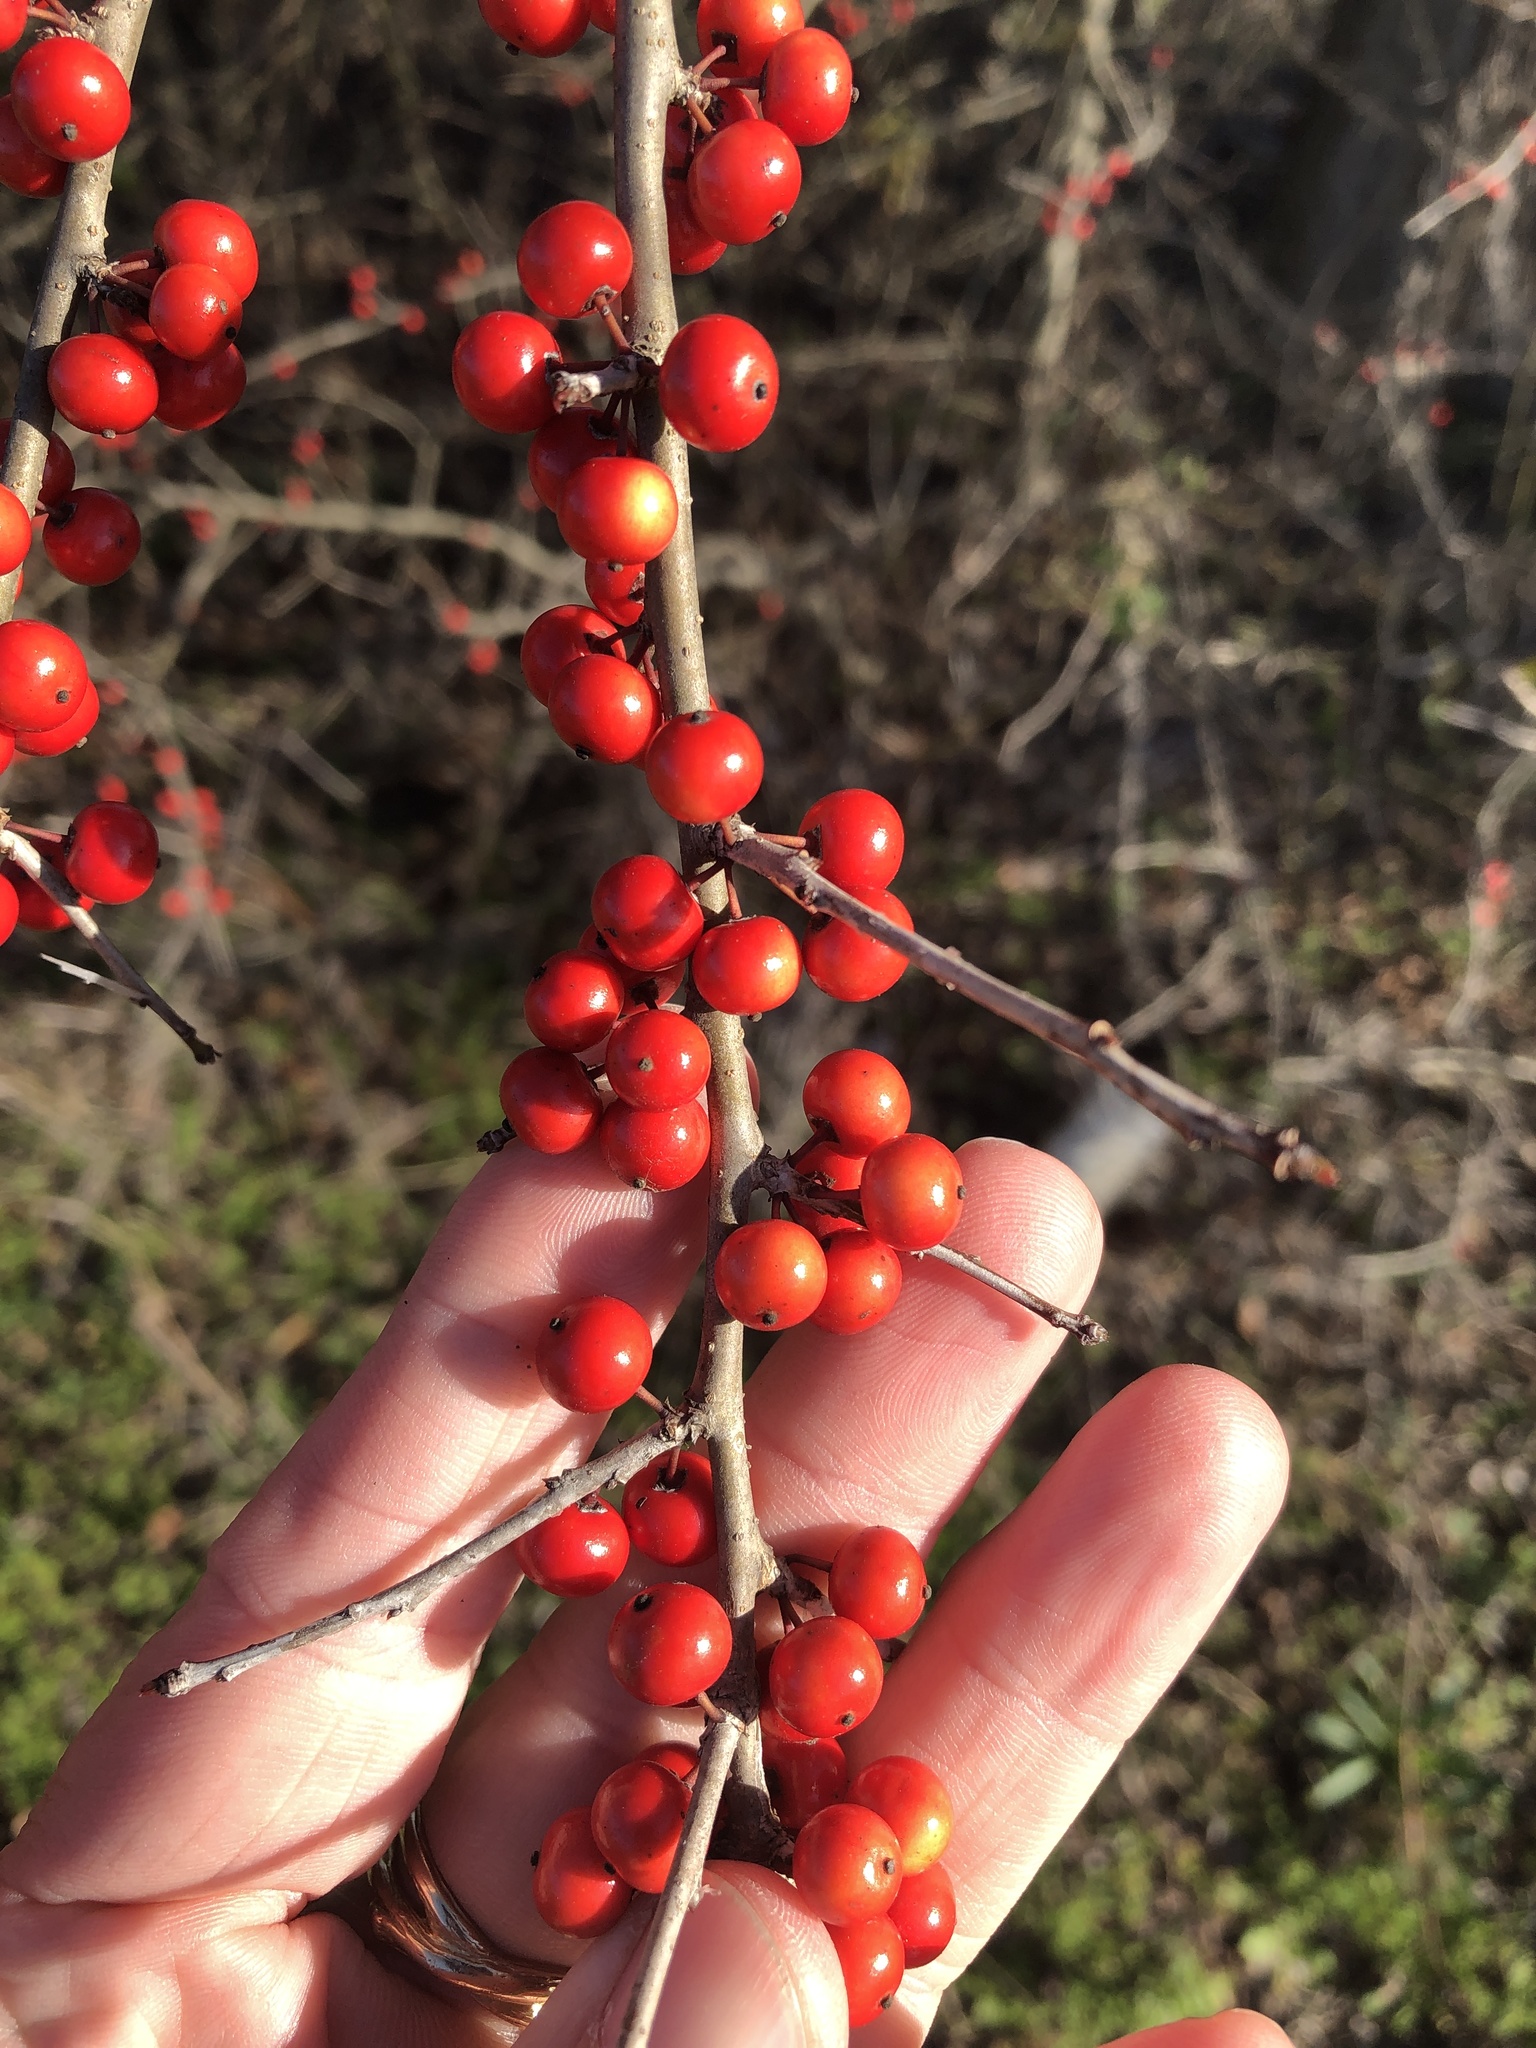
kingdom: Plantae
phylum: Tracheophyta
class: Magnoliopsida
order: Aquifoliales
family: Aquifoliaceae
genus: Ilex
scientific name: Ilex decidua
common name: Possum-haw
